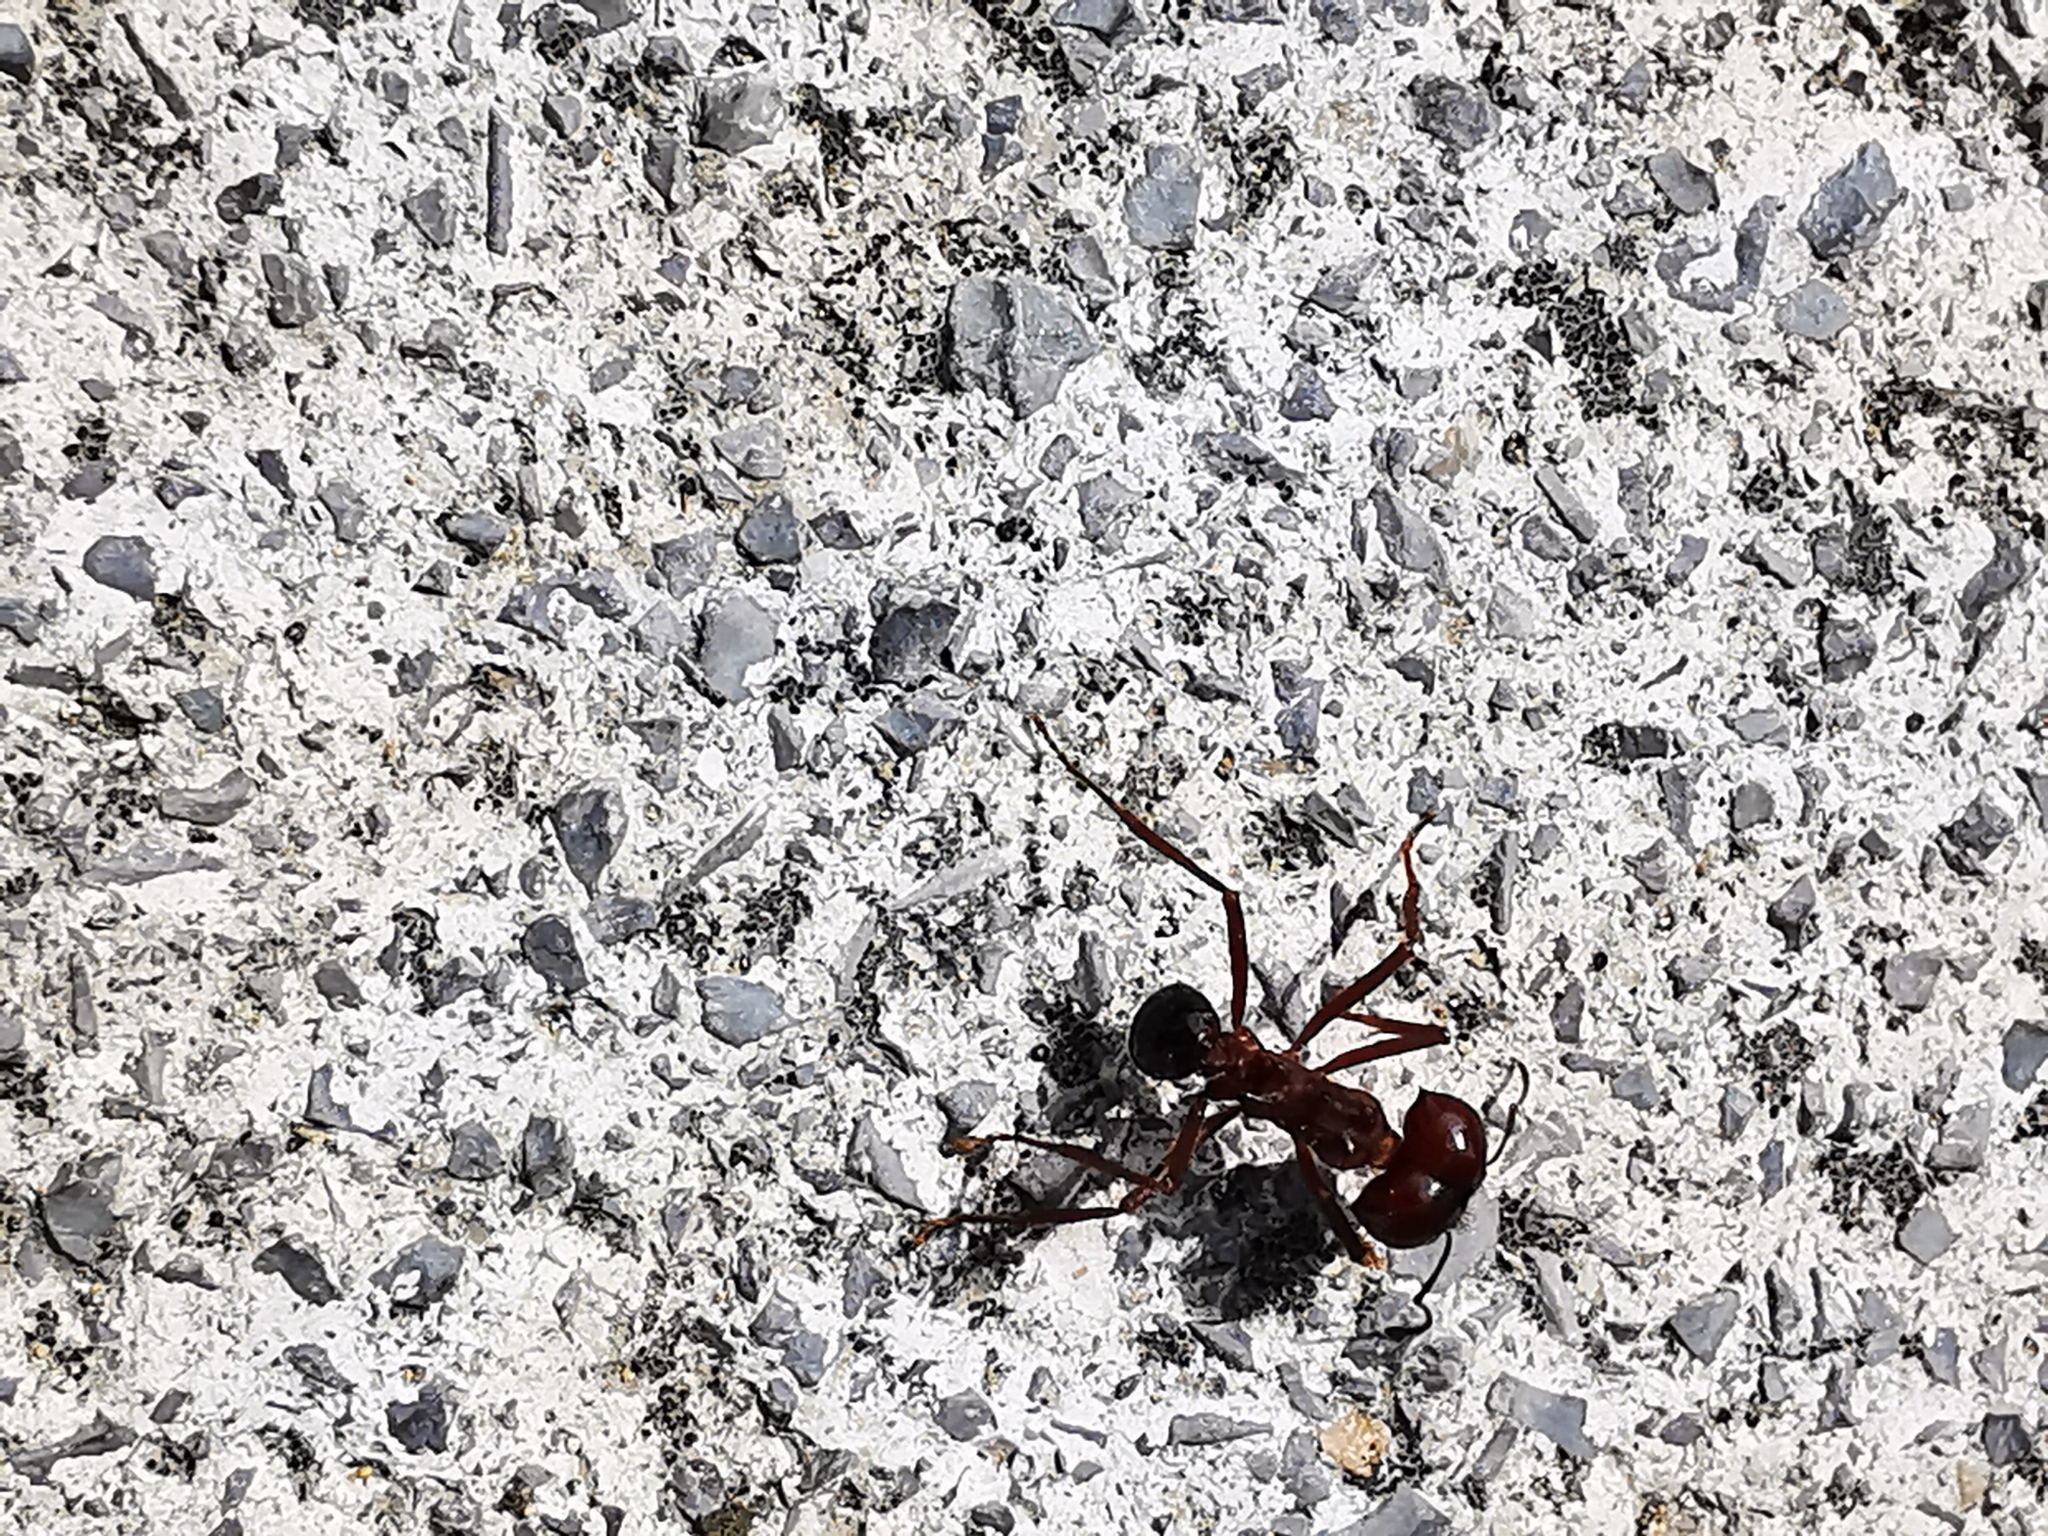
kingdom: Animalia
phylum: Arthropoda
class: Insecta
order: Hymenoptera
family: Formicidae
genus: Atta
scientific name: Atta mexicana
